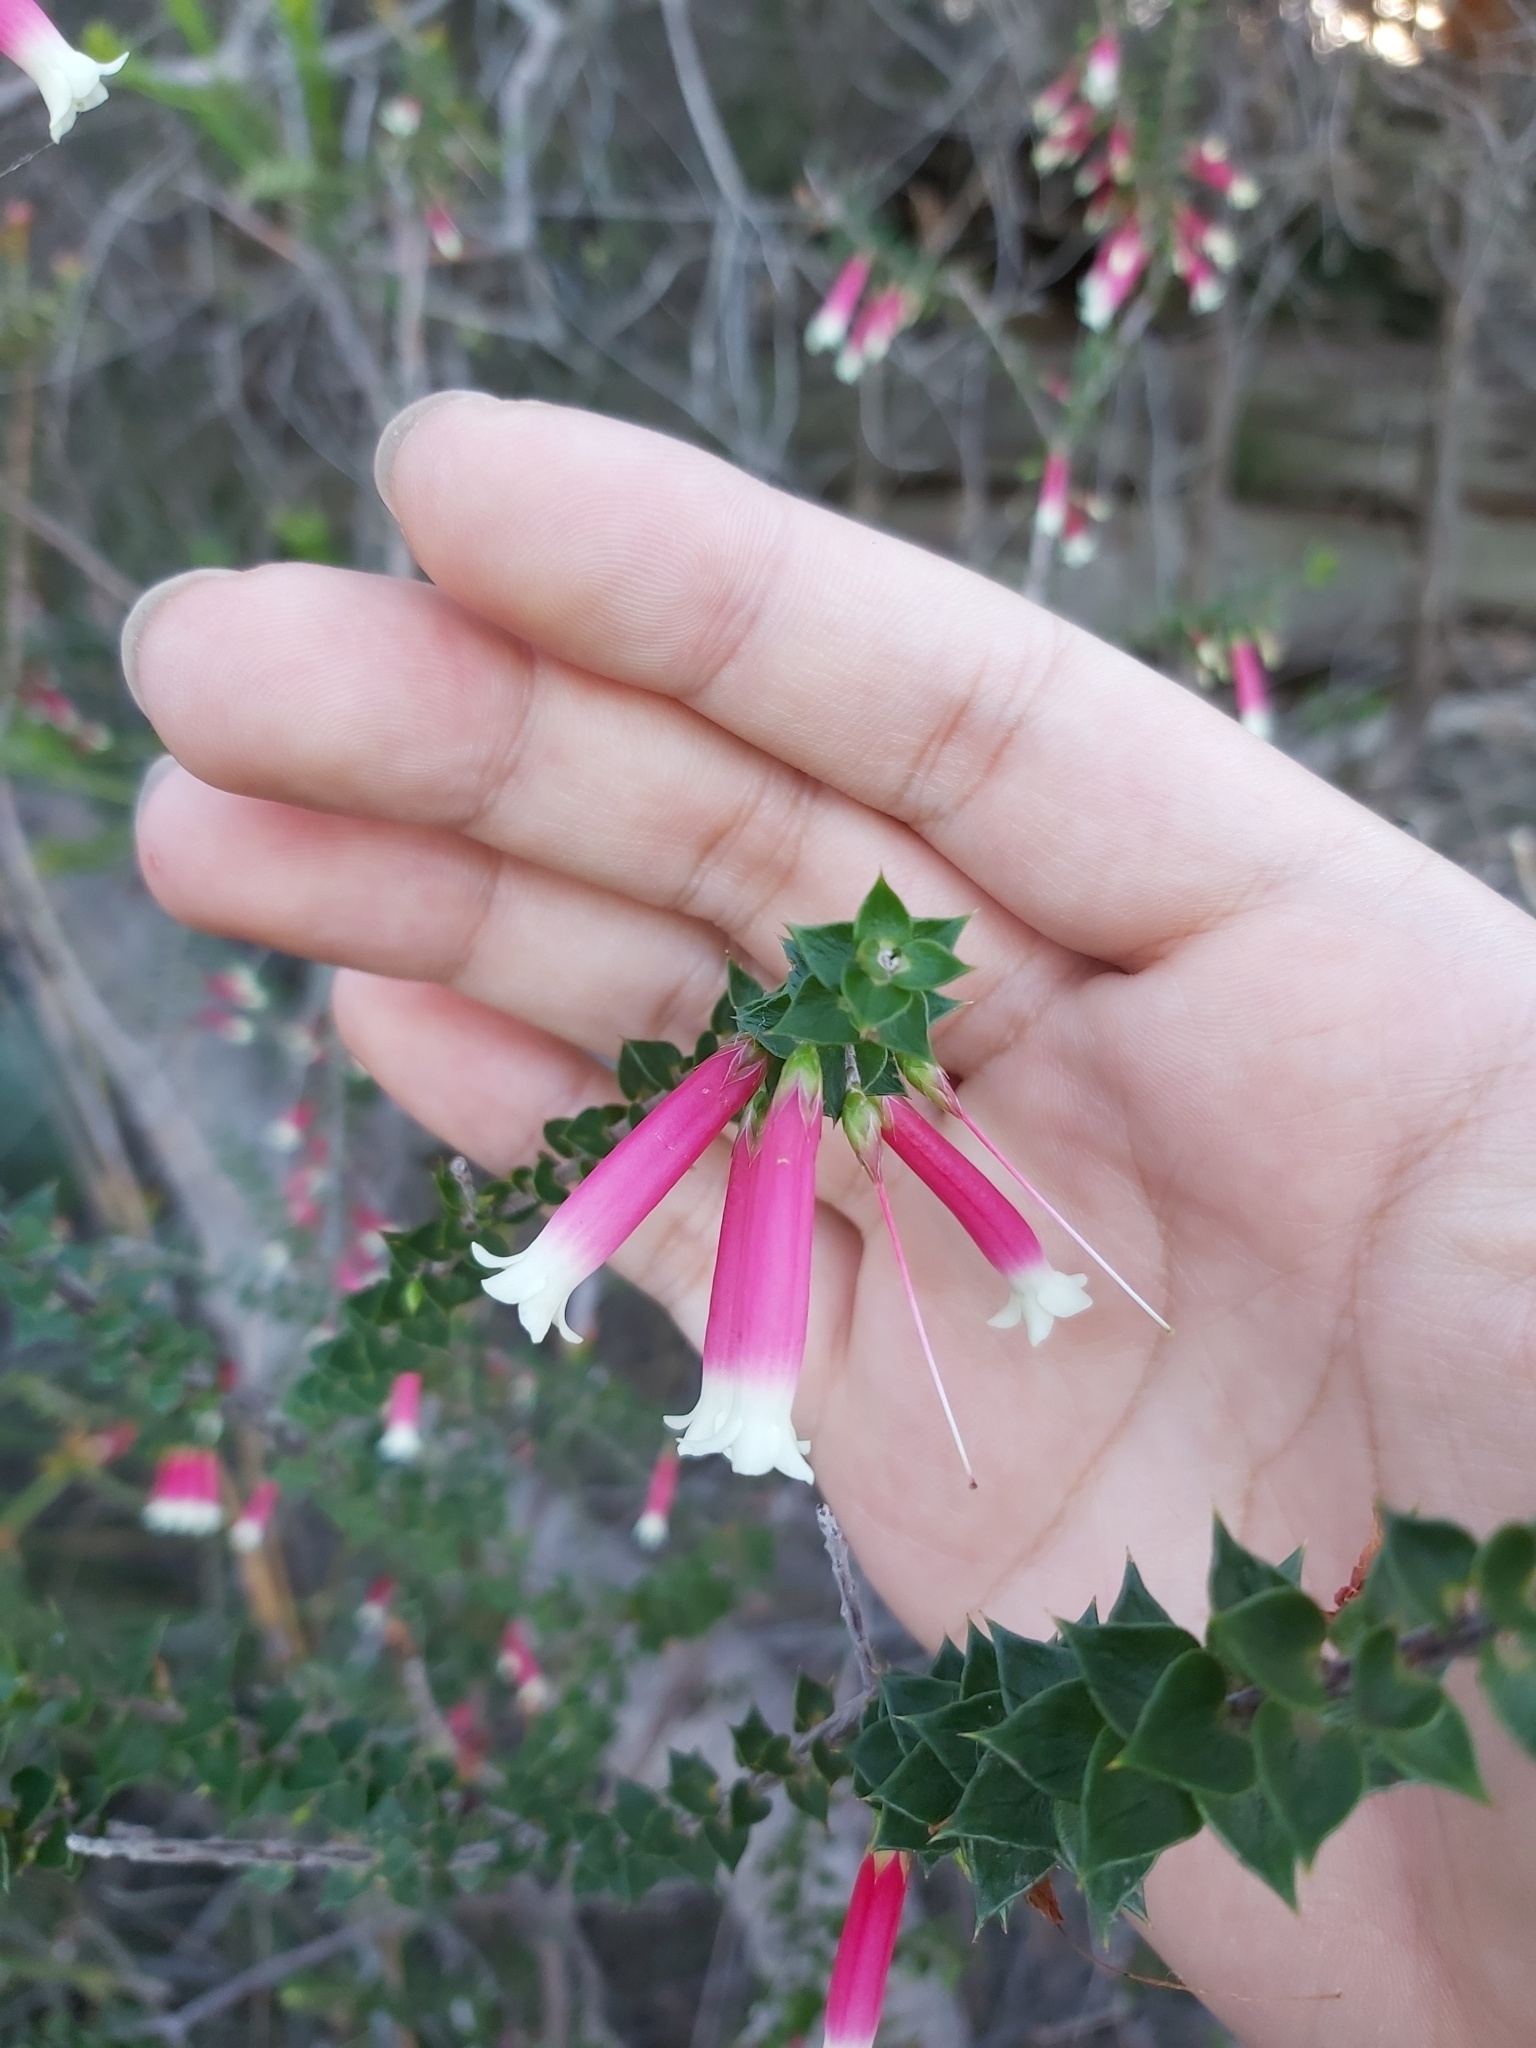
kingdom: Plantae
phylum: Tracheophyta
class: Magnoliopsida
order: Ericales
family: Ericaceae
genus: Epacris
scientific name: Epacris longiflora
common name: Fuchsia-heath
